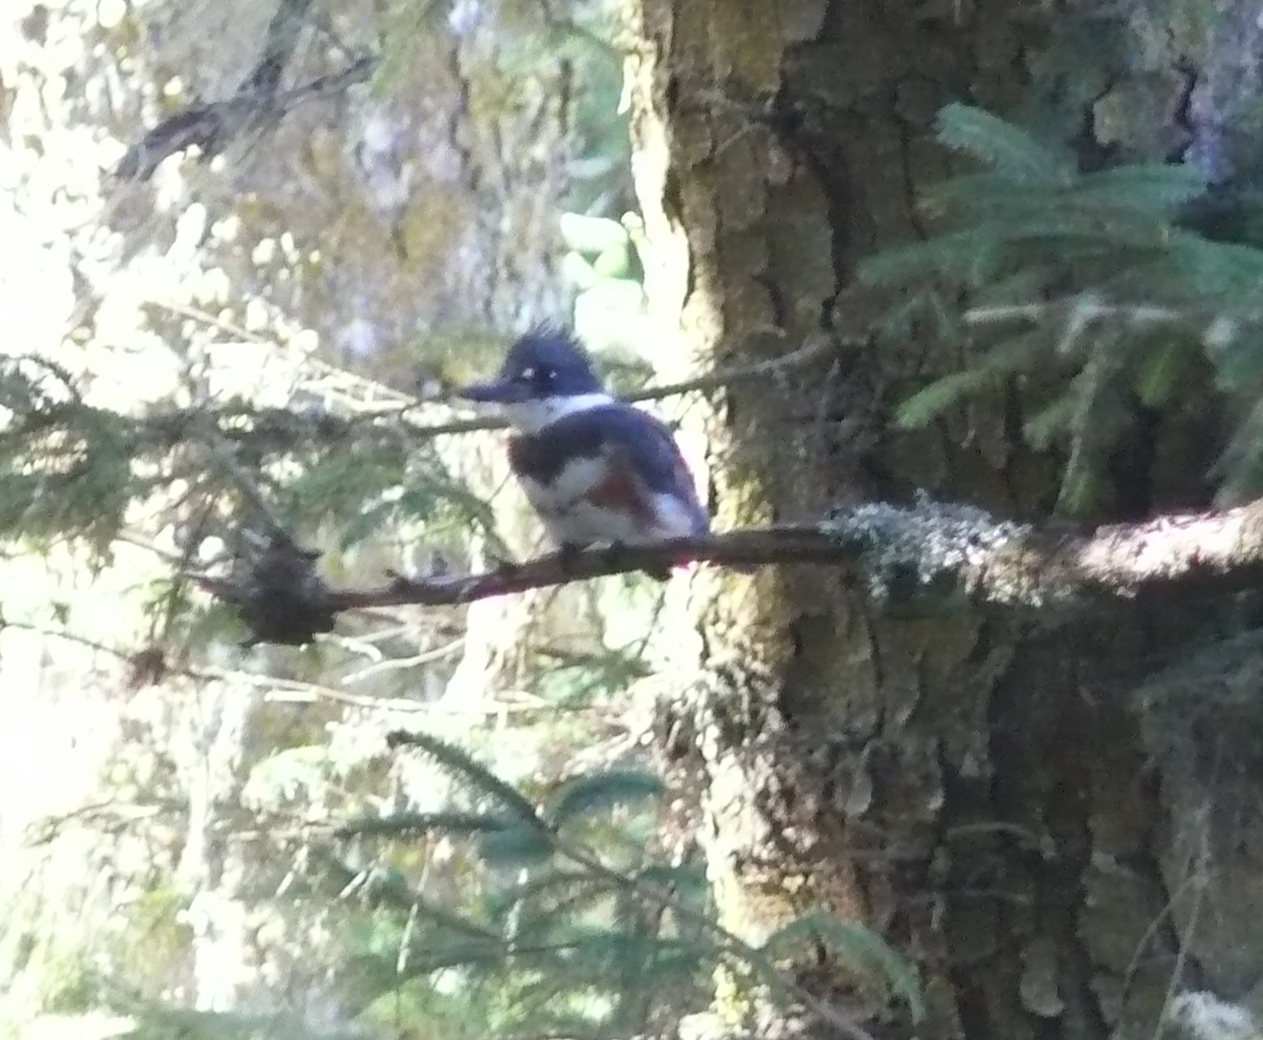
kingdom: Animalia
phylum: Chordata
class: Aves
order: Coraciiformes
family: Alcedinidae
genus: Megaceryle
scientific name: Megaceryle alcyon
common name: Belted kingfisher
